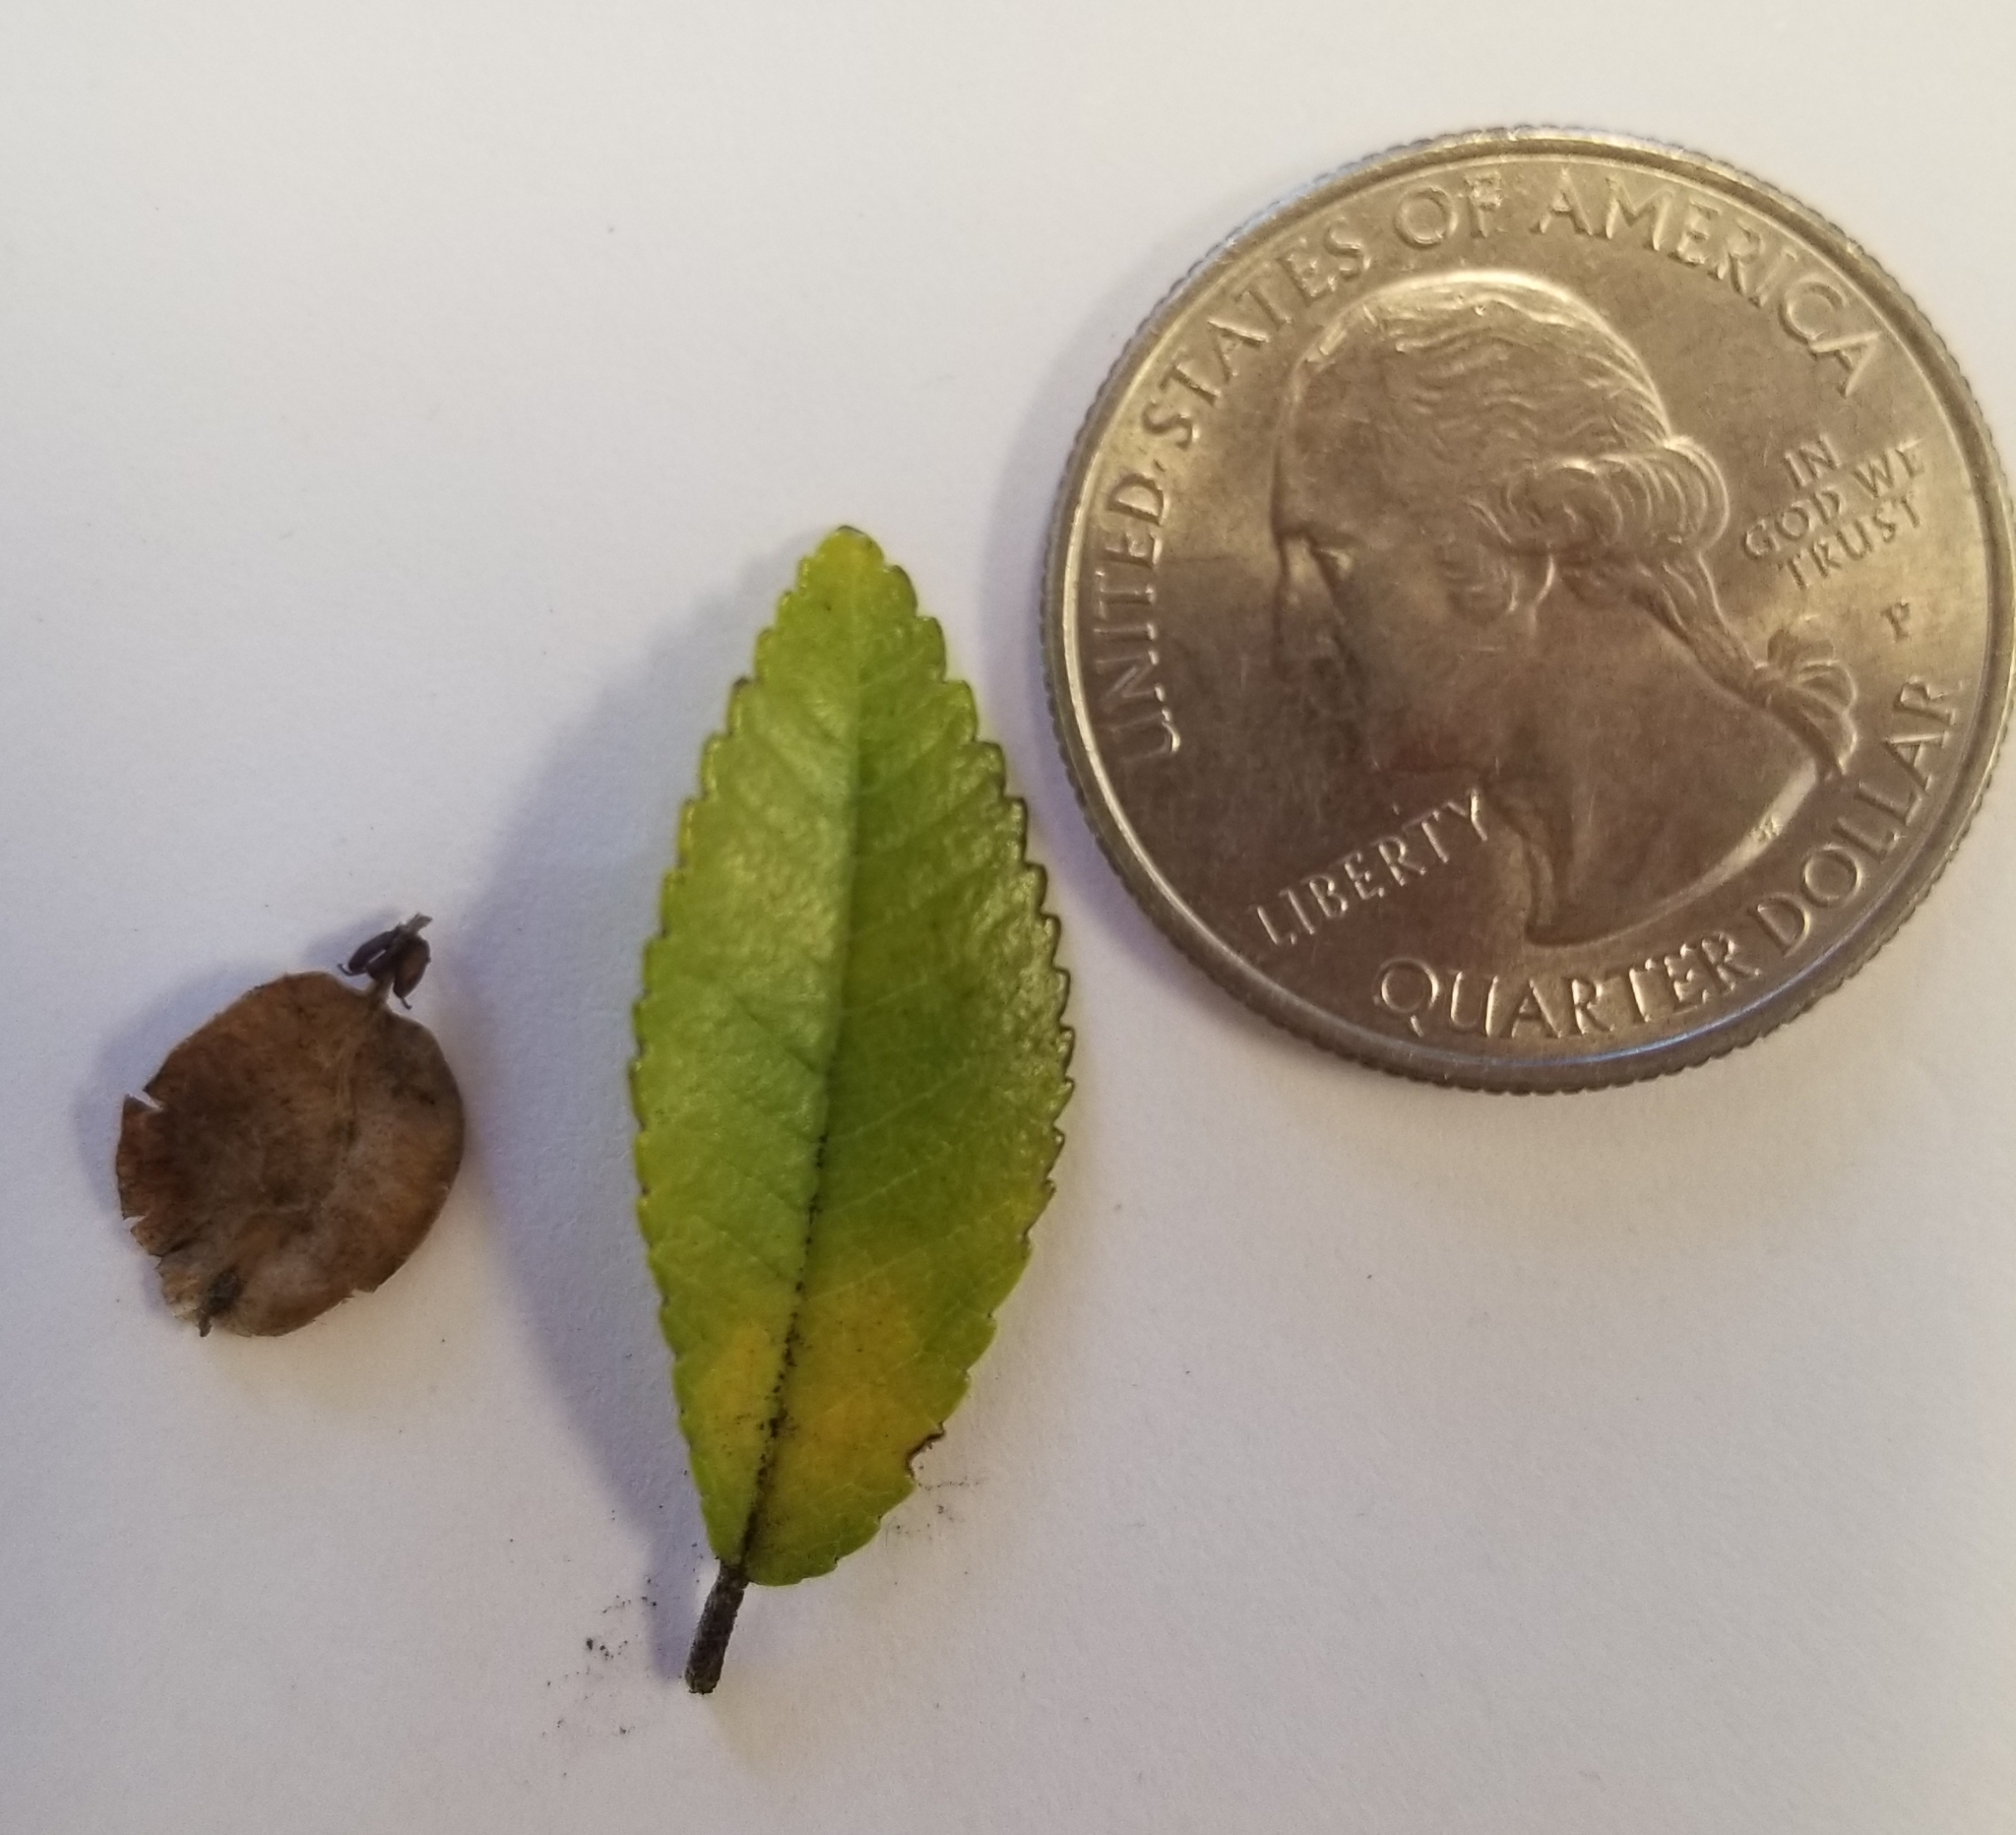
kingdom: Plantae
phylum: Tracheophyta
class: Magnoliopsida
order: Rosales
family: Ulmaceae
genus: Ulmus
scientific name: Ulmus parvifolia
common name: Chinese elm
